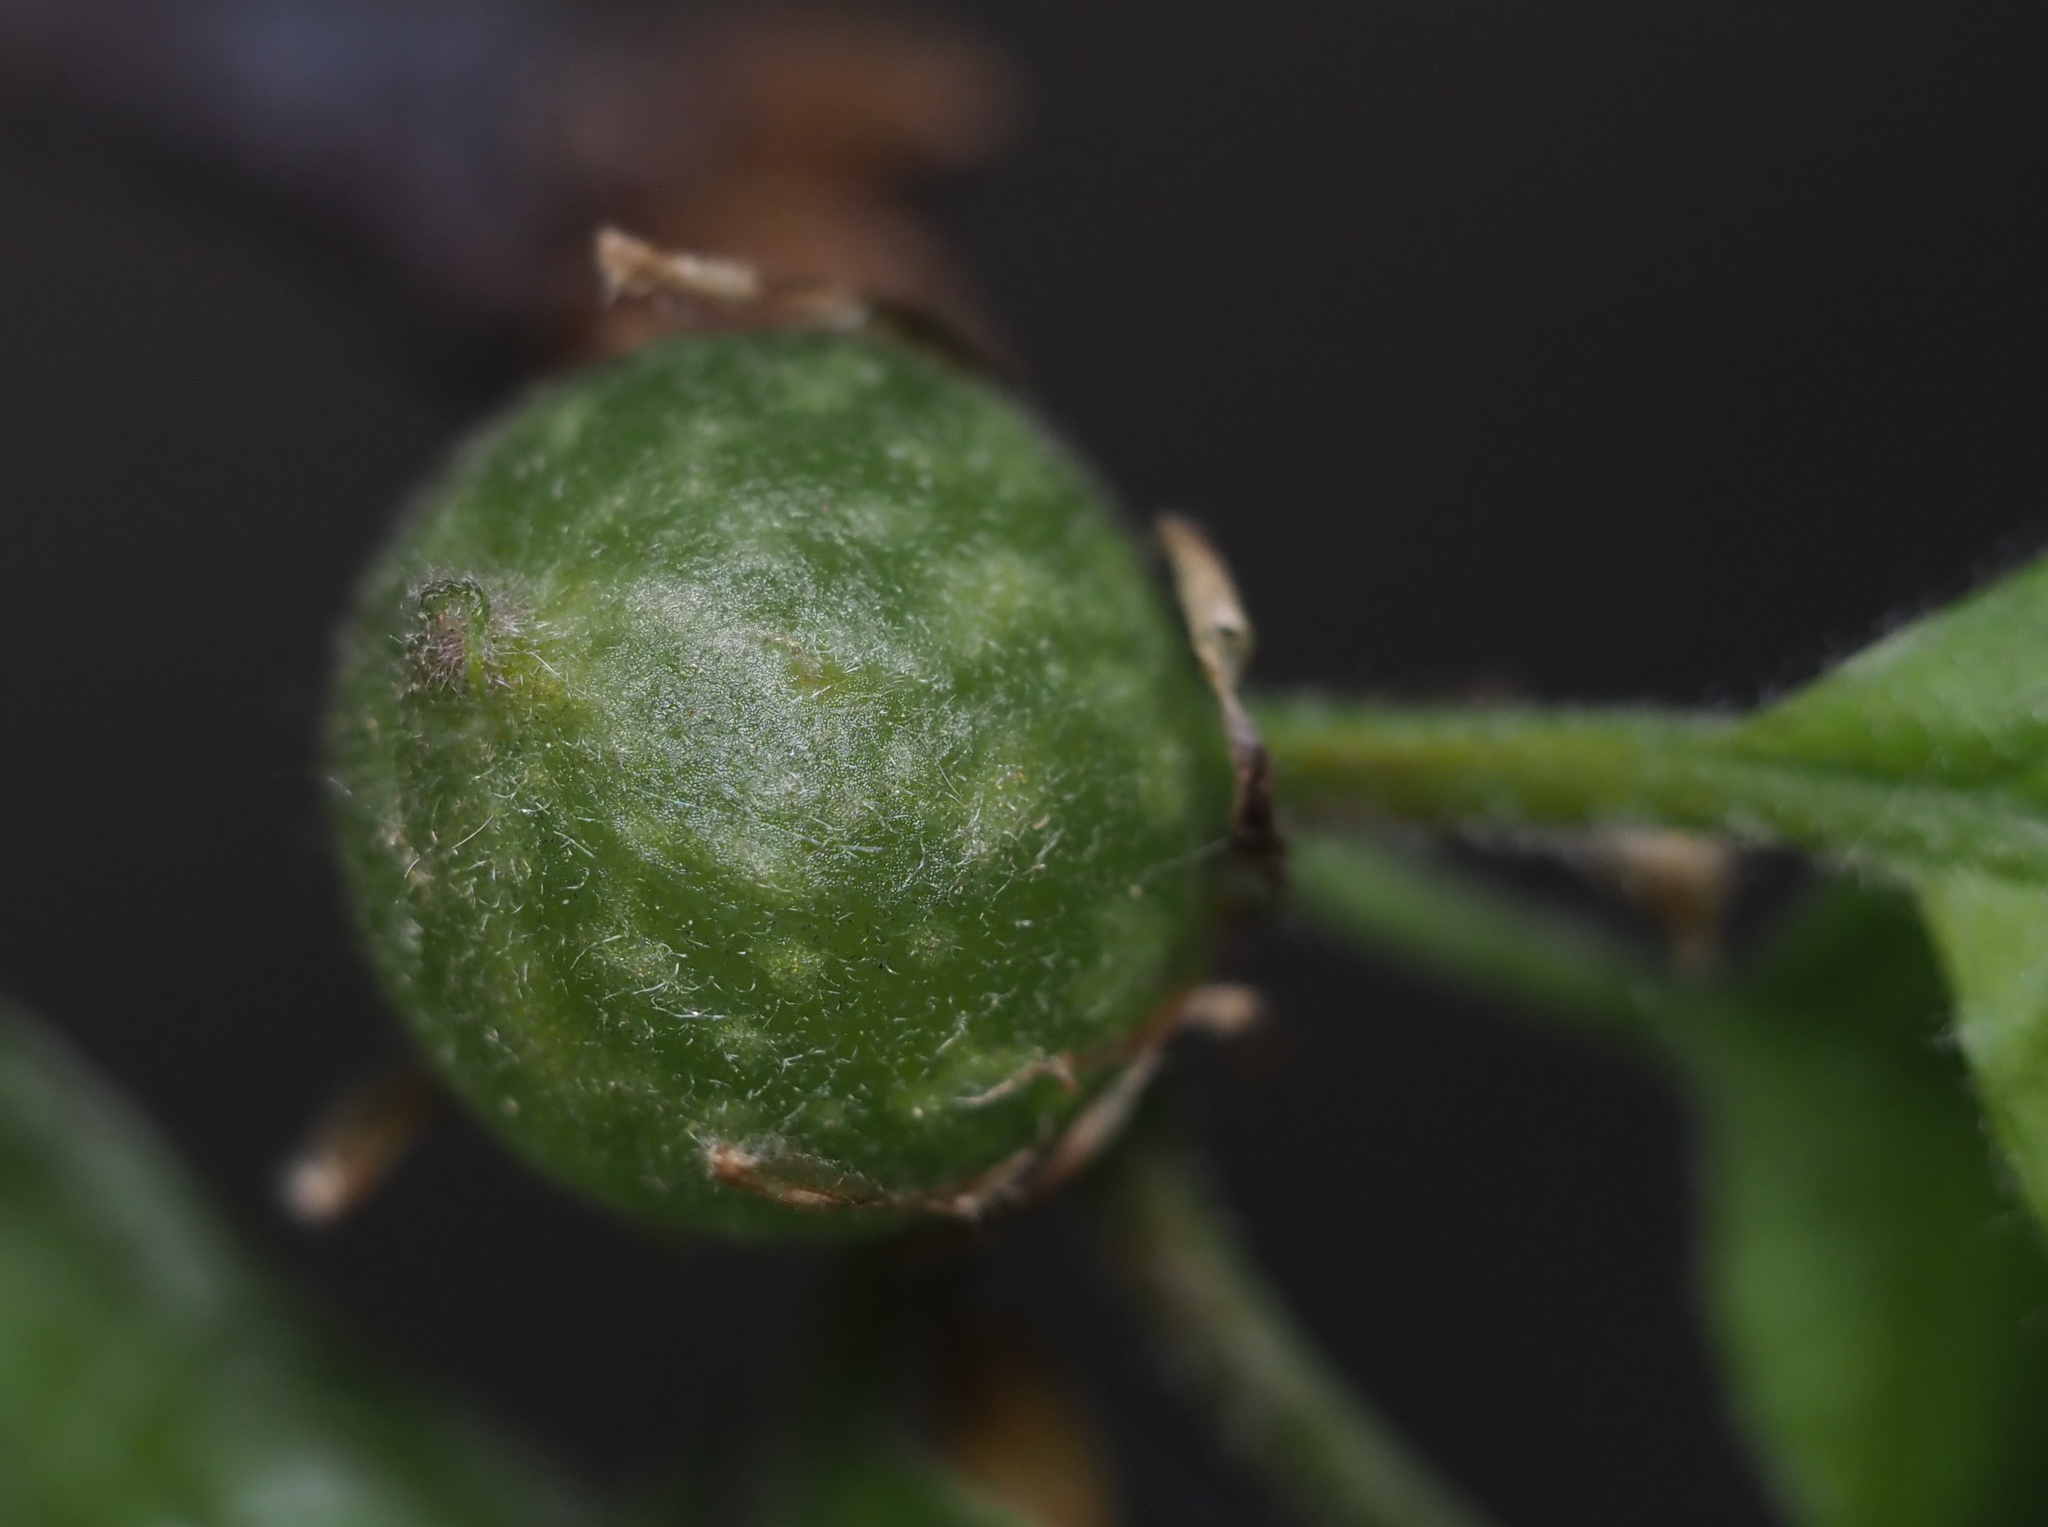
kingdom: Animalia
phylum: Arthropoda
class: Insecta
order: Hymenoptera
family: Cynipidae
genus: Dryocosmus
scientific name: Dryocosmus quercuspalustris
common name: Succulent oak gall wasp
